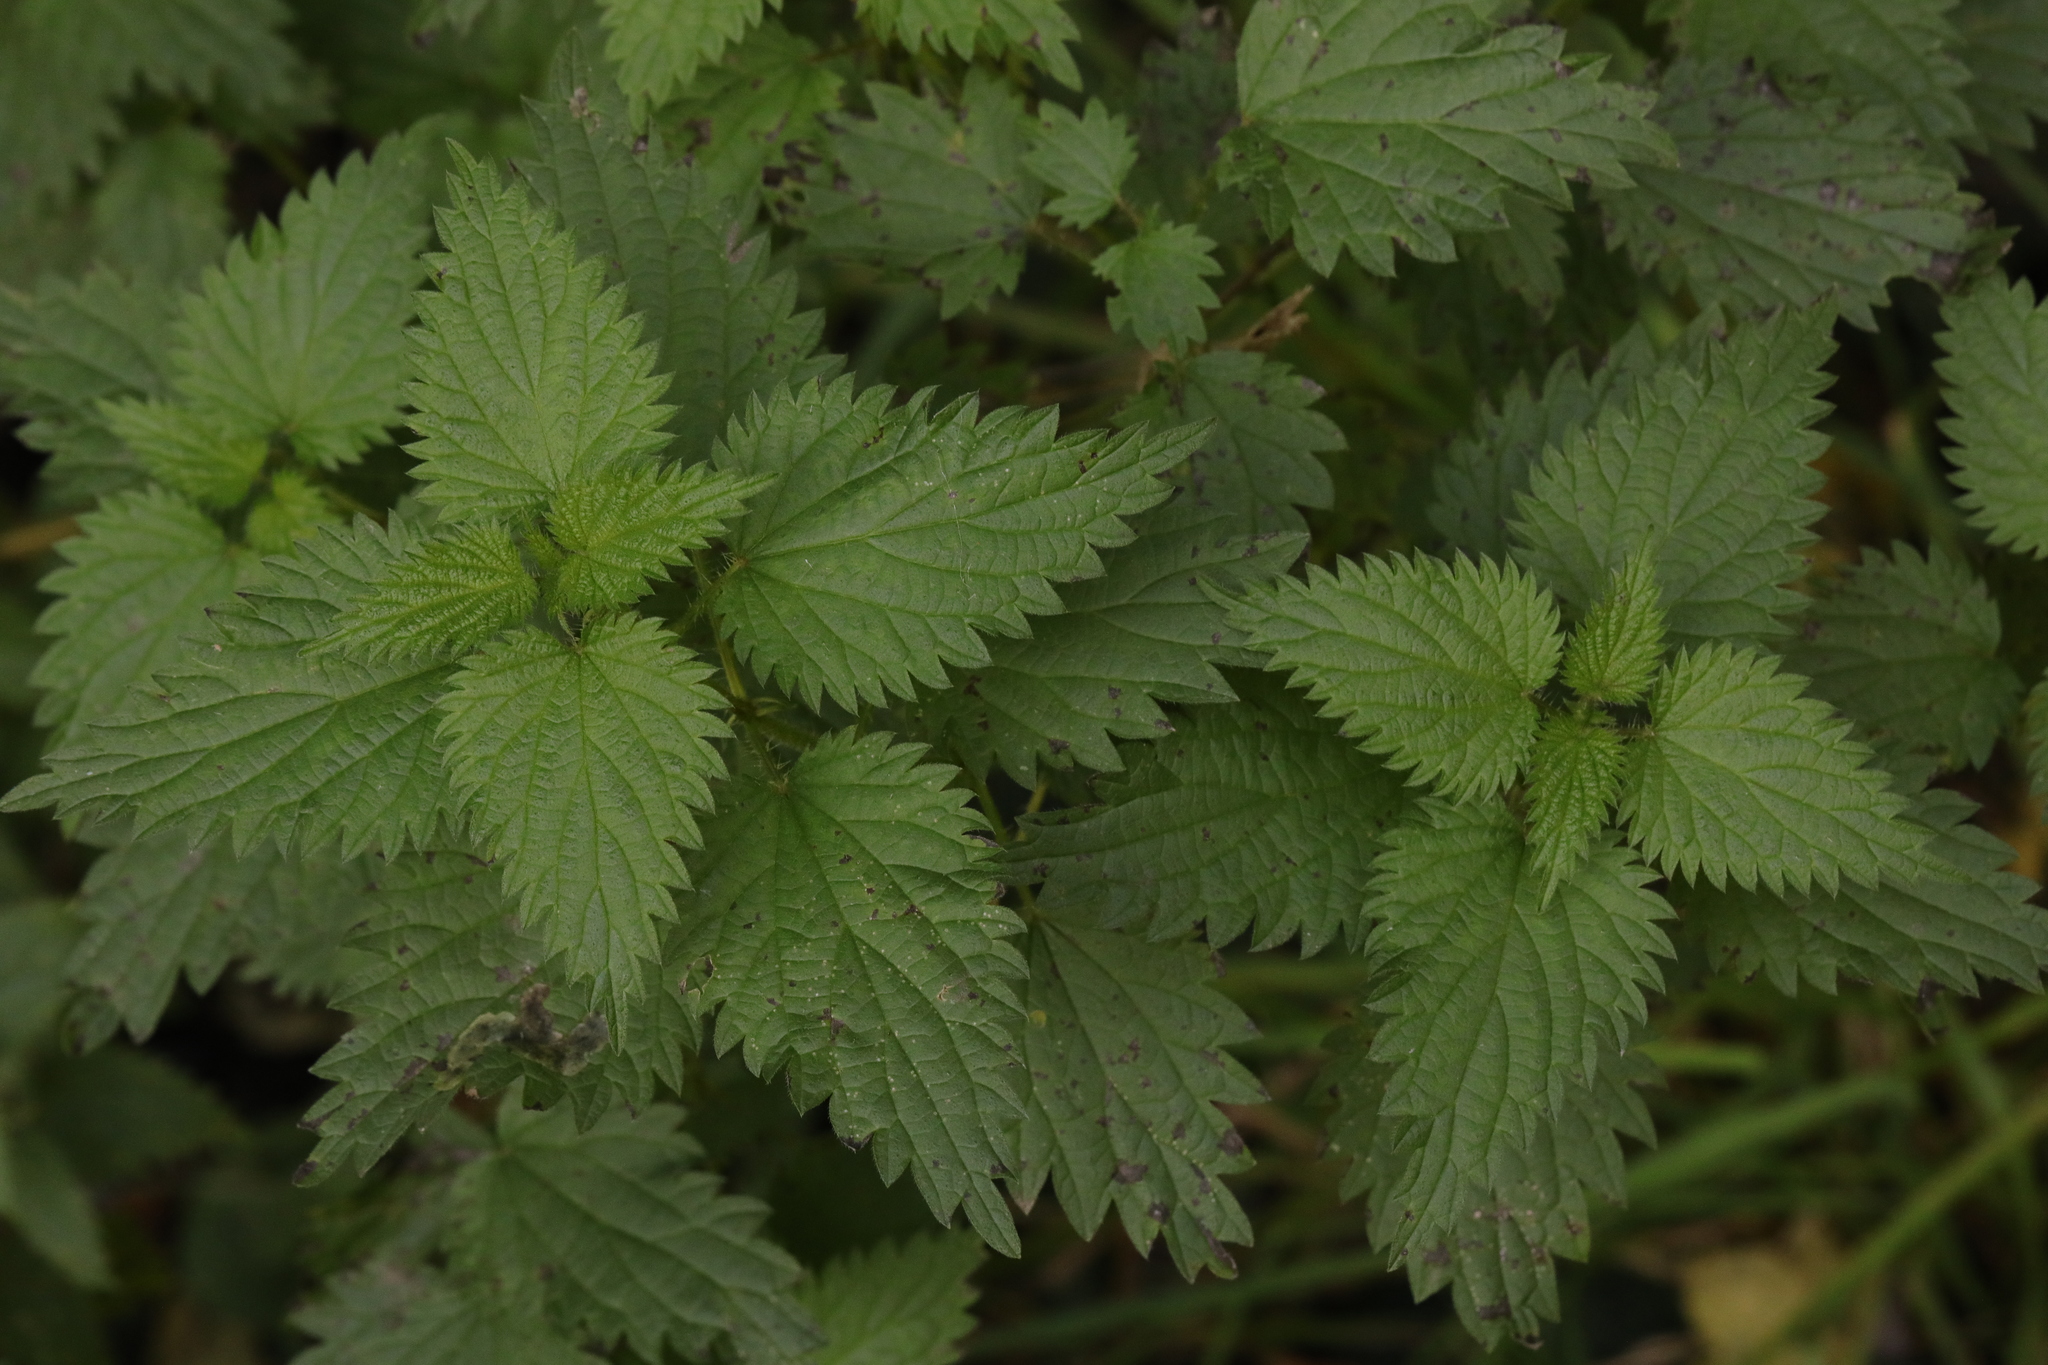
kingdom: Plantae
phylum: Tracheophyta
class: Magnoliopsida
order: Rosales
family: Urticaceae
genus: Urtica
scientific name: Urtica dioica
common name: Common nettle
